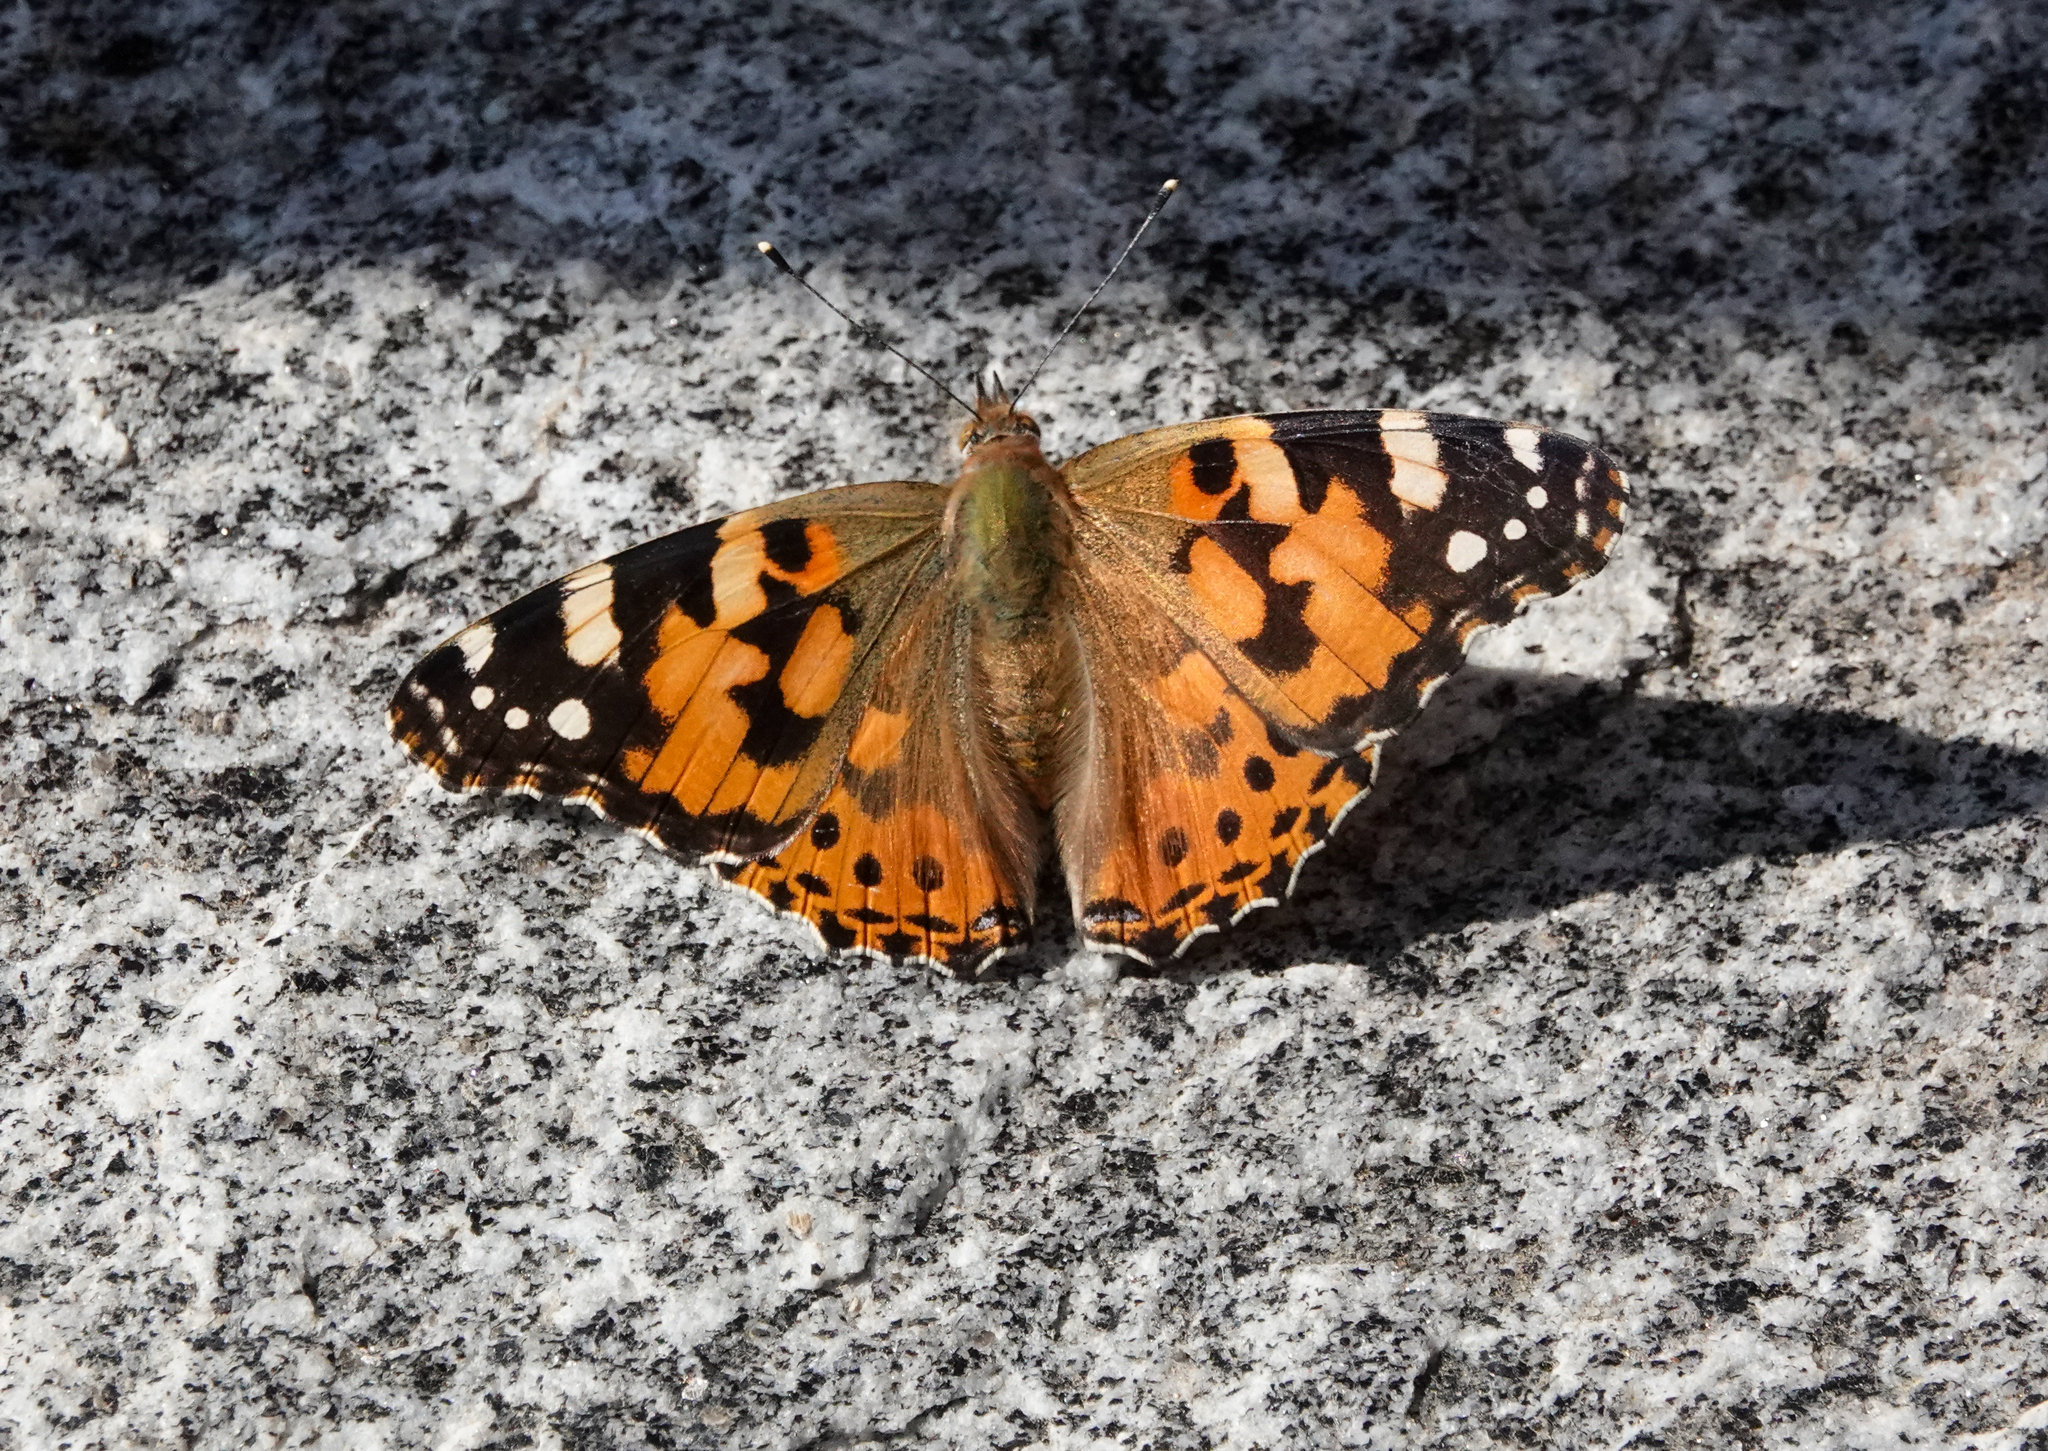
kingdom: Animalia
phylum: Arthropoda
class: Insecta
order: Lepidoptera
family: Nymphalidae
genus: Vanessa
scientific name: Vanessa cardui
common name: Painted lady
